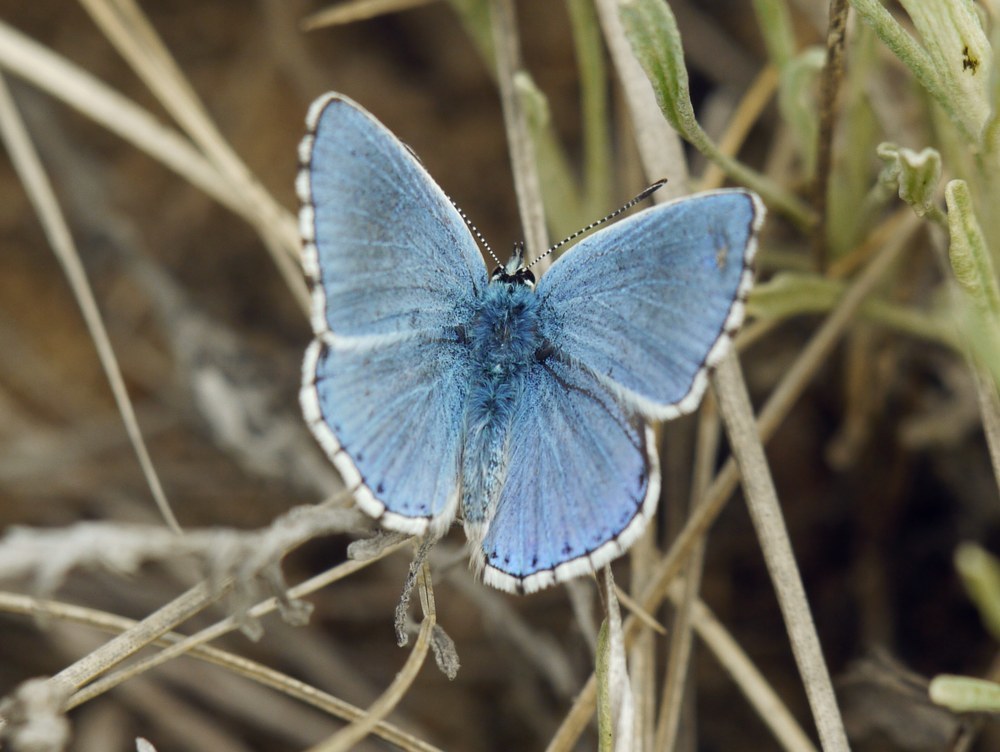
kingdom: Animalia
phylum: Arthropoda
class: Insecta
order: Lepidoptera
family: Lycaenidae
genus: Lysandra
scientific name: Lysandra bellargus
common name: Adonis blue
